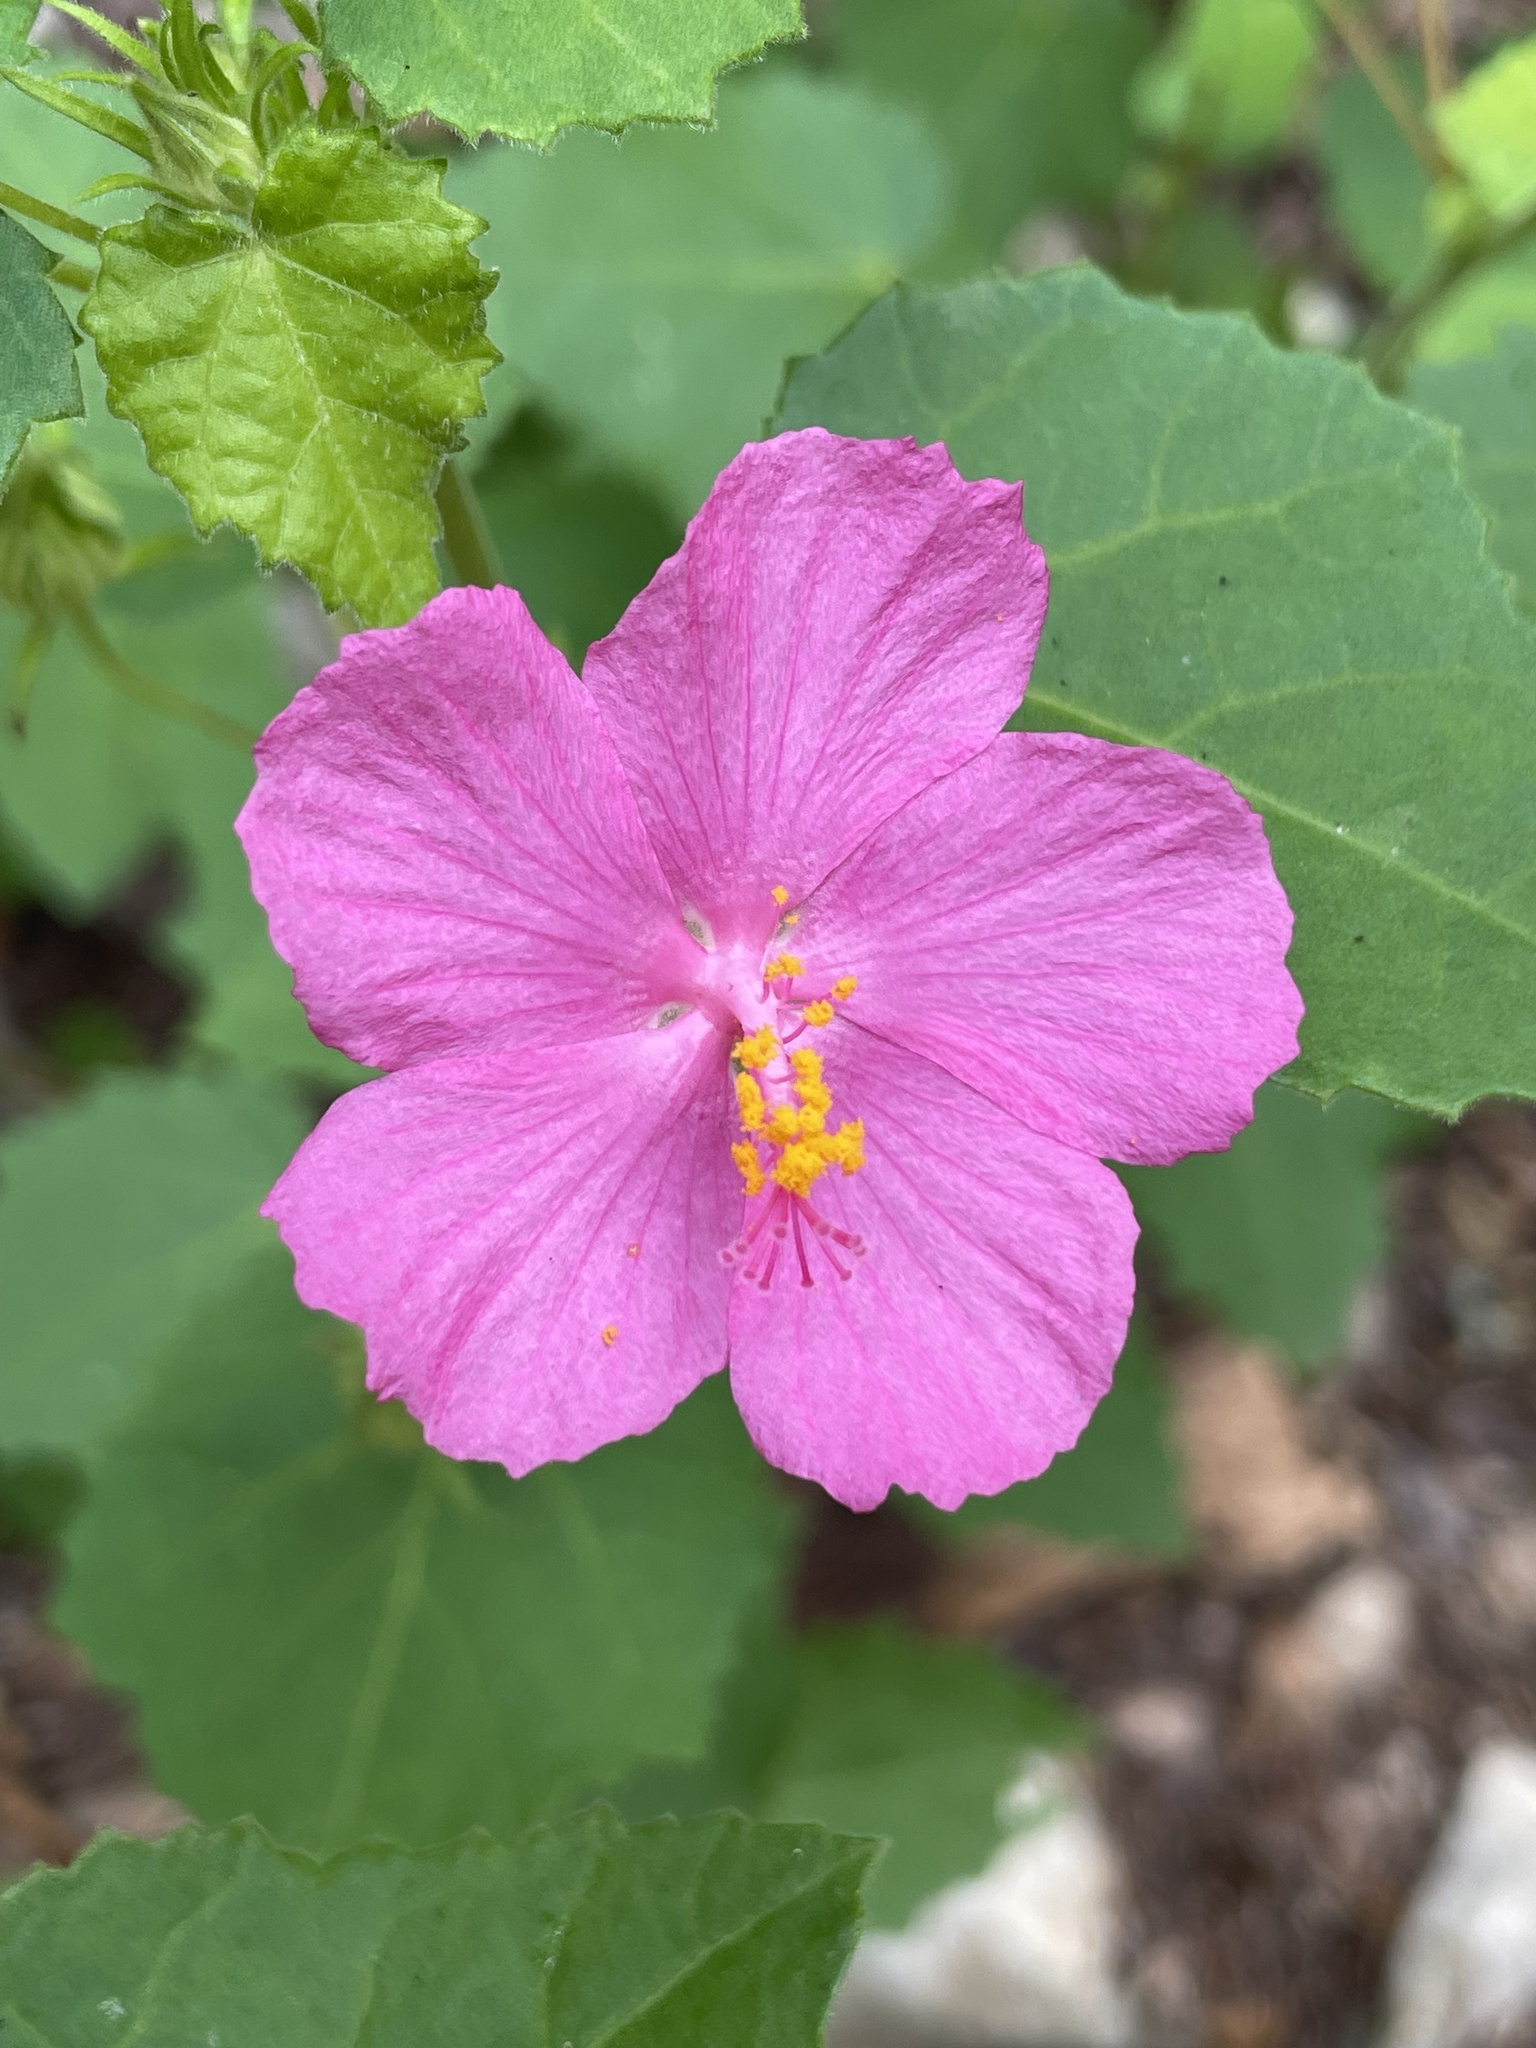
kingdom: Plantae
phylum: Tracheophyta
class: Magnoliopsida
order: Malvales
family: Malvaceae
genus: Pavonia
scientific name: Pavonia lasiopetala
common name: Texas swamp-mallow
